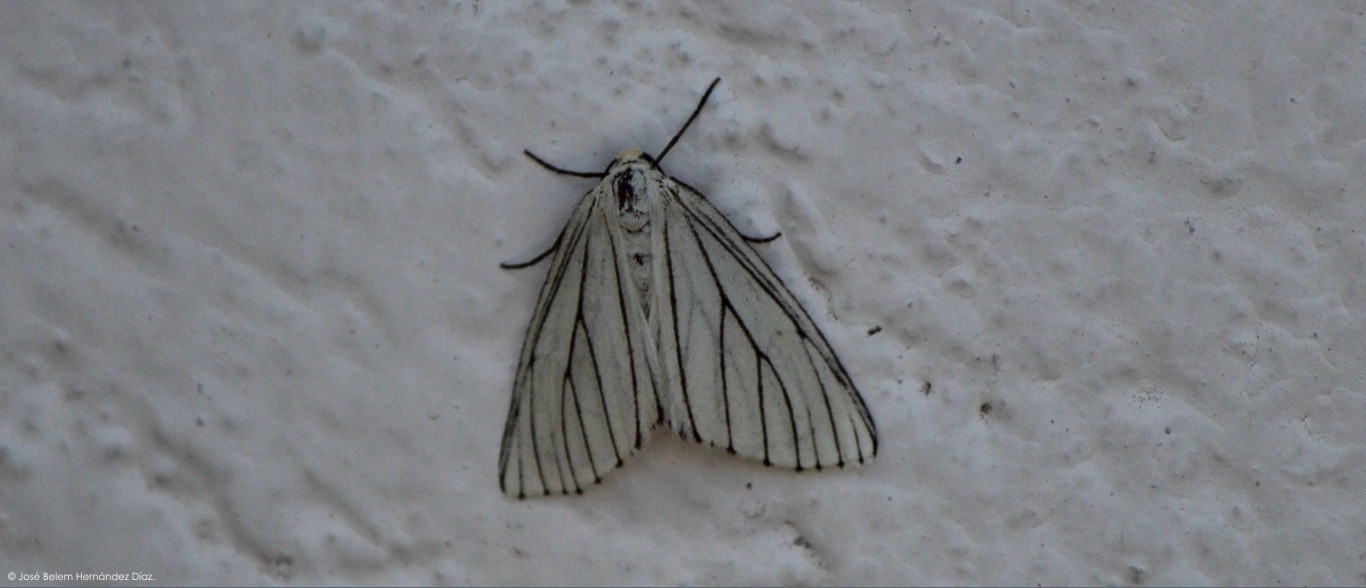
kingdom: Animalia
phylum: Arthropoda
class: Insecta
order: Lepidoptera
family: Geometridae
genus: Neuromelia
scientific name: Neuromelia selectata
